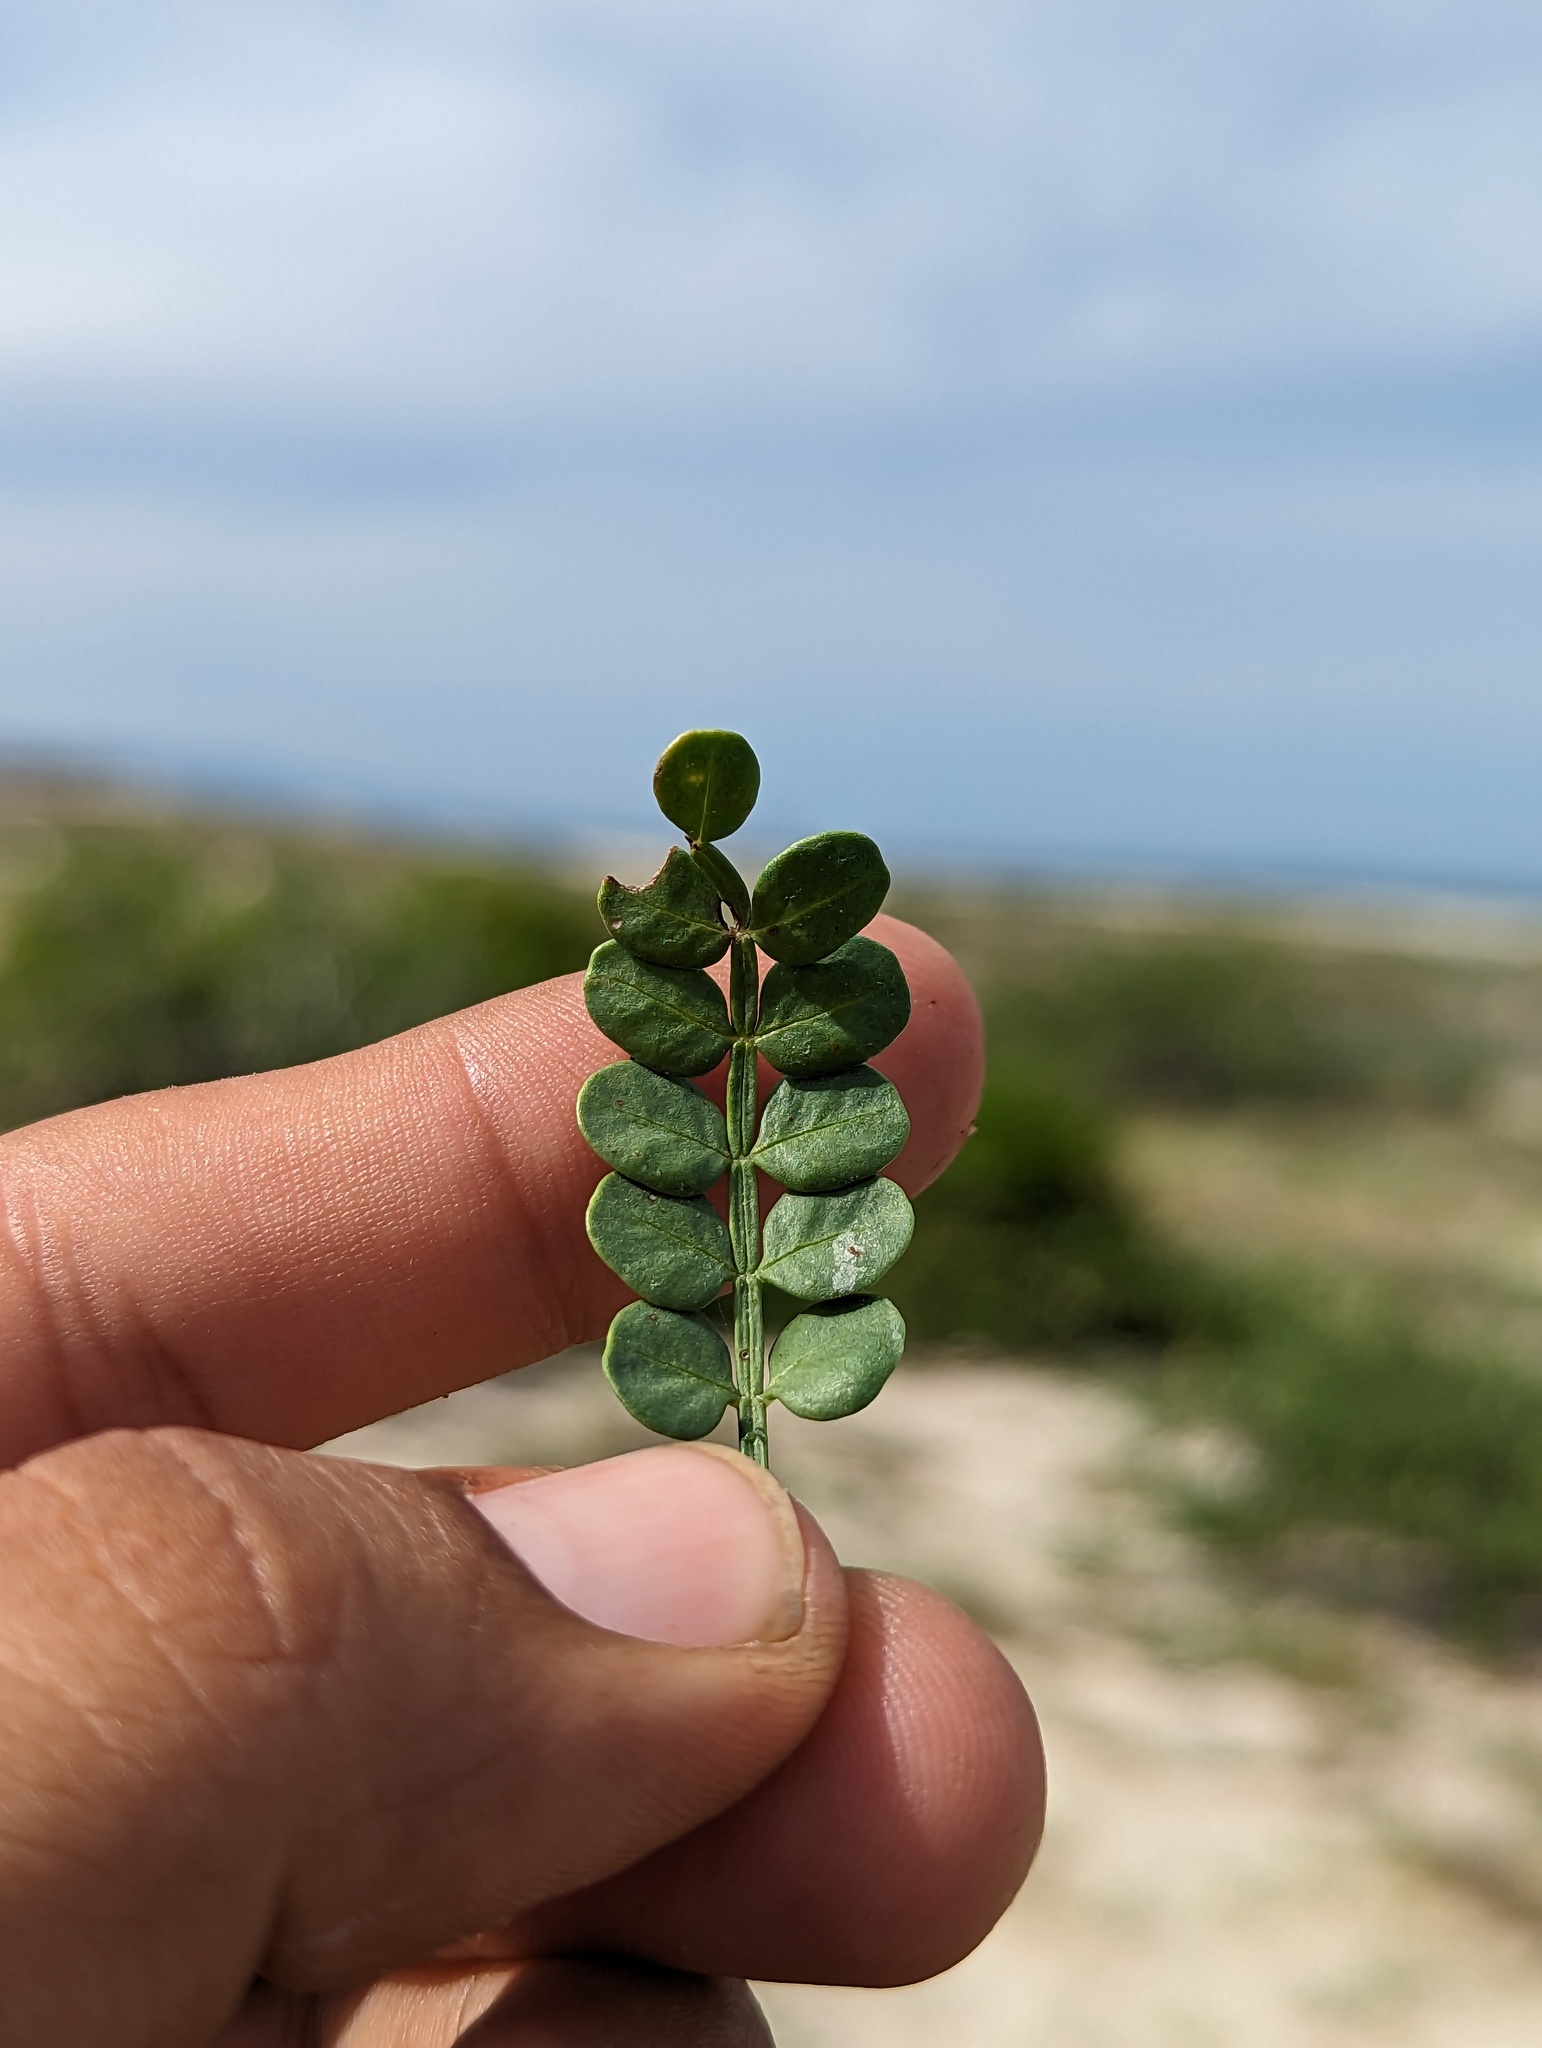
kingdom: Plantae
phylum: Tracheophyta
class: Magnoliopsida
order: Sapindales
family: Burseraceae
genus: Bursera
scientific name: Bursera exequielii
